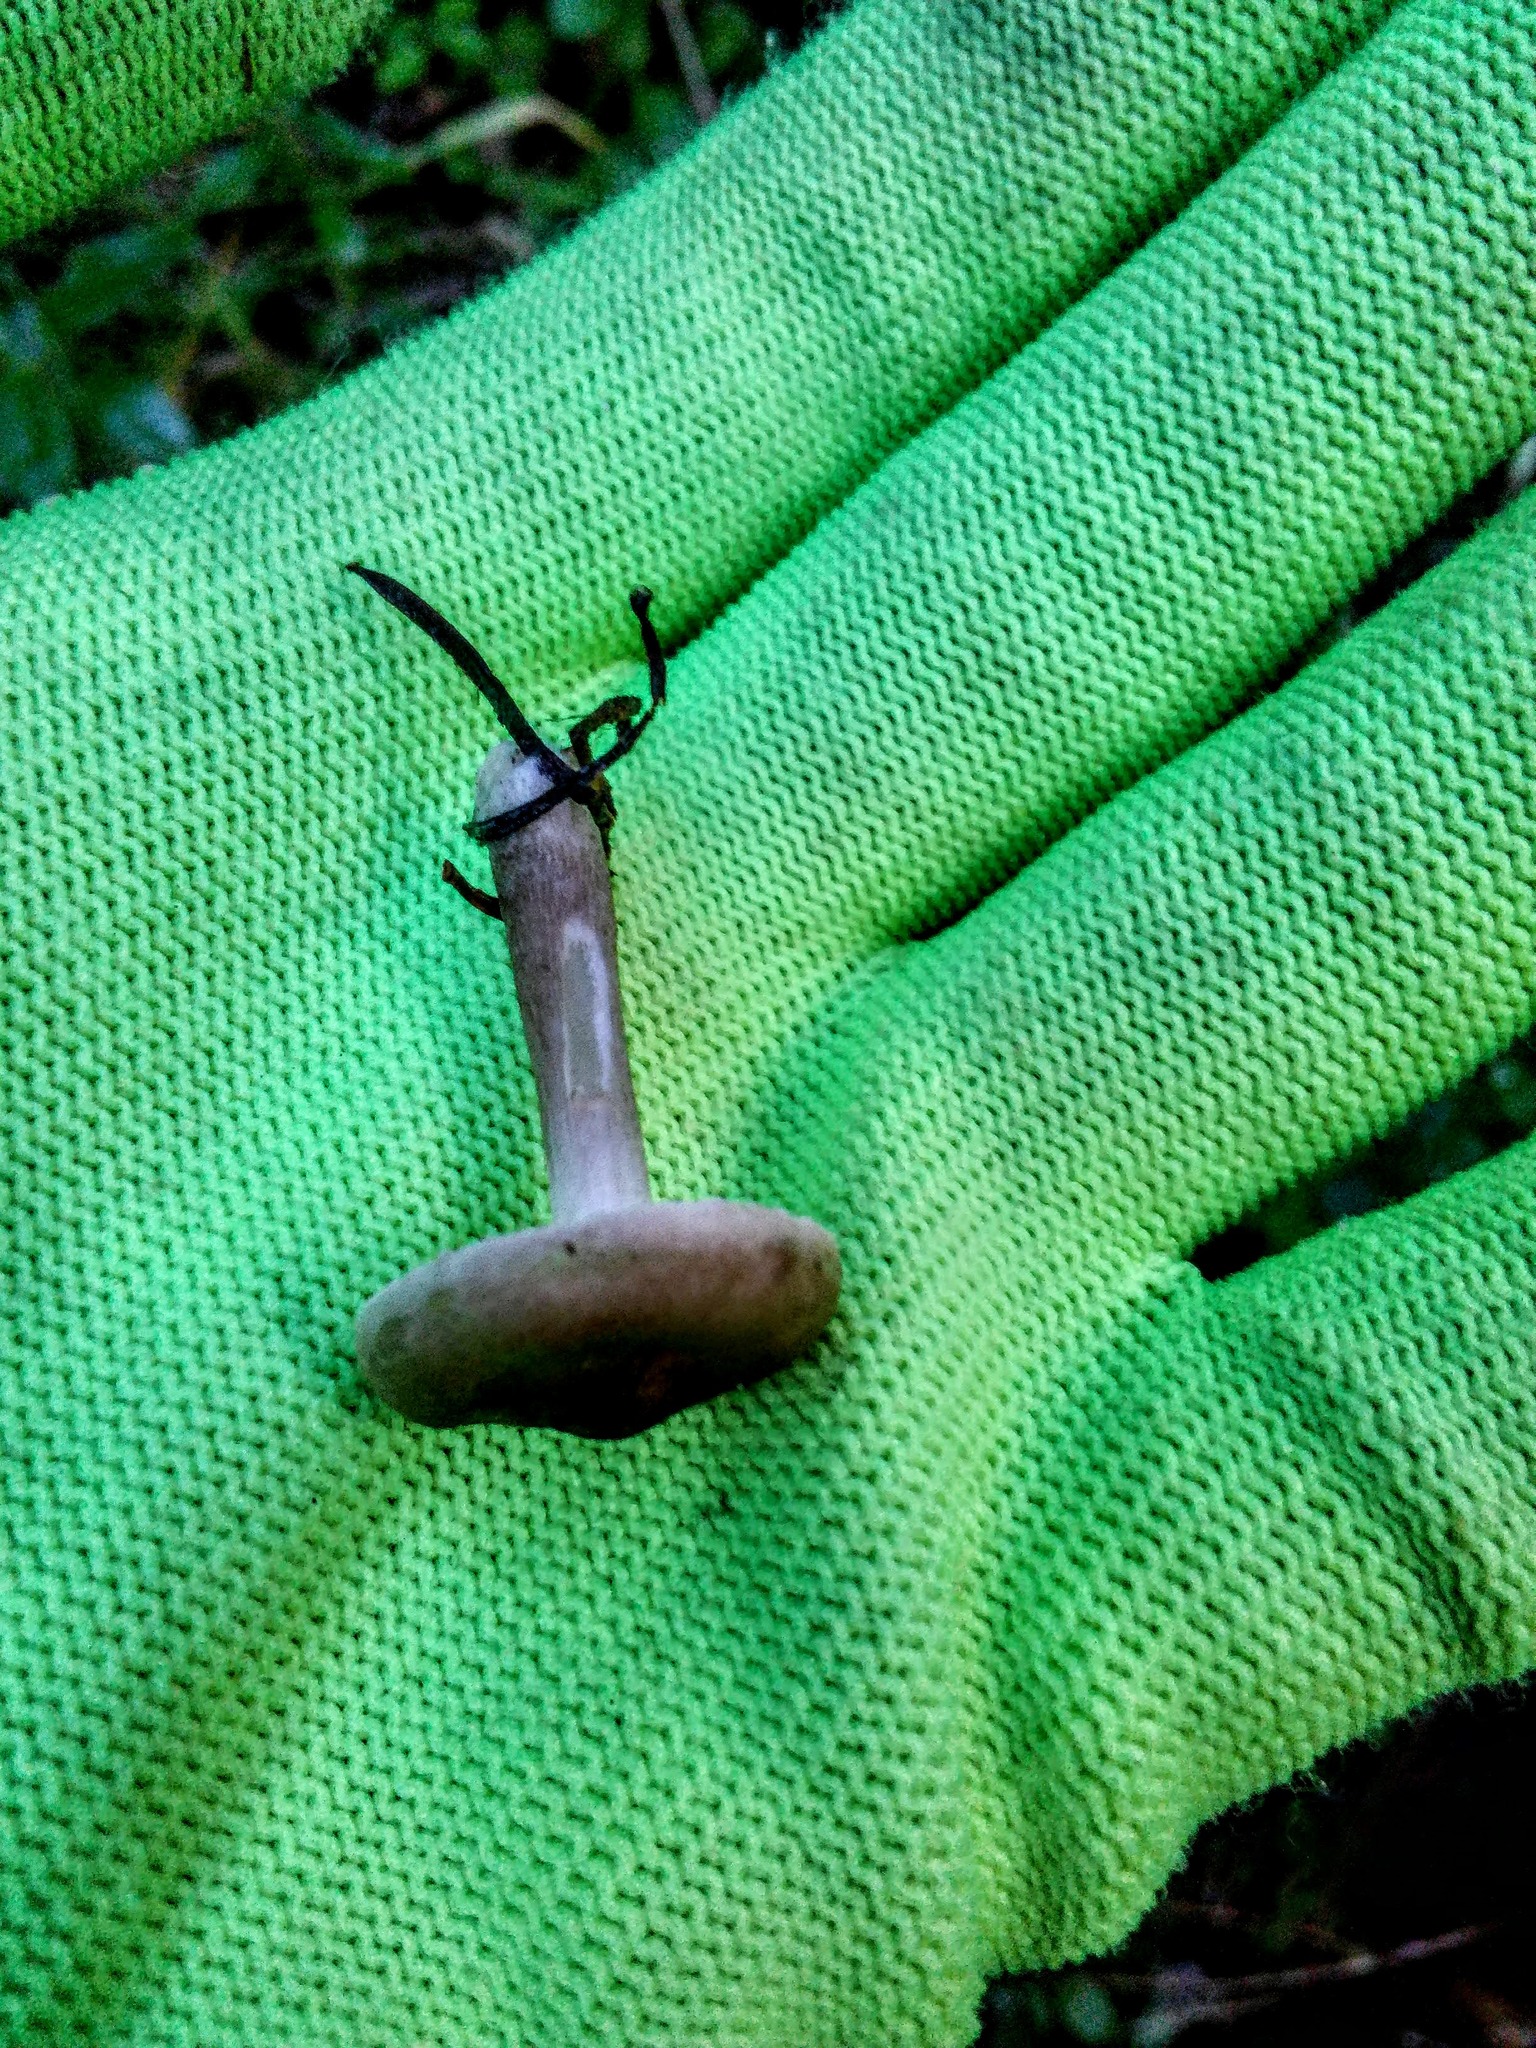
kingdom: Fungi
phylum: Basidiomycota
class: Agaricomycetes
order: Agaricales
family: Hygrophoraceae
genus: Ampulloclitocybe
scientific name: Ampulloclitocybe clavipes
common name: Club foot
